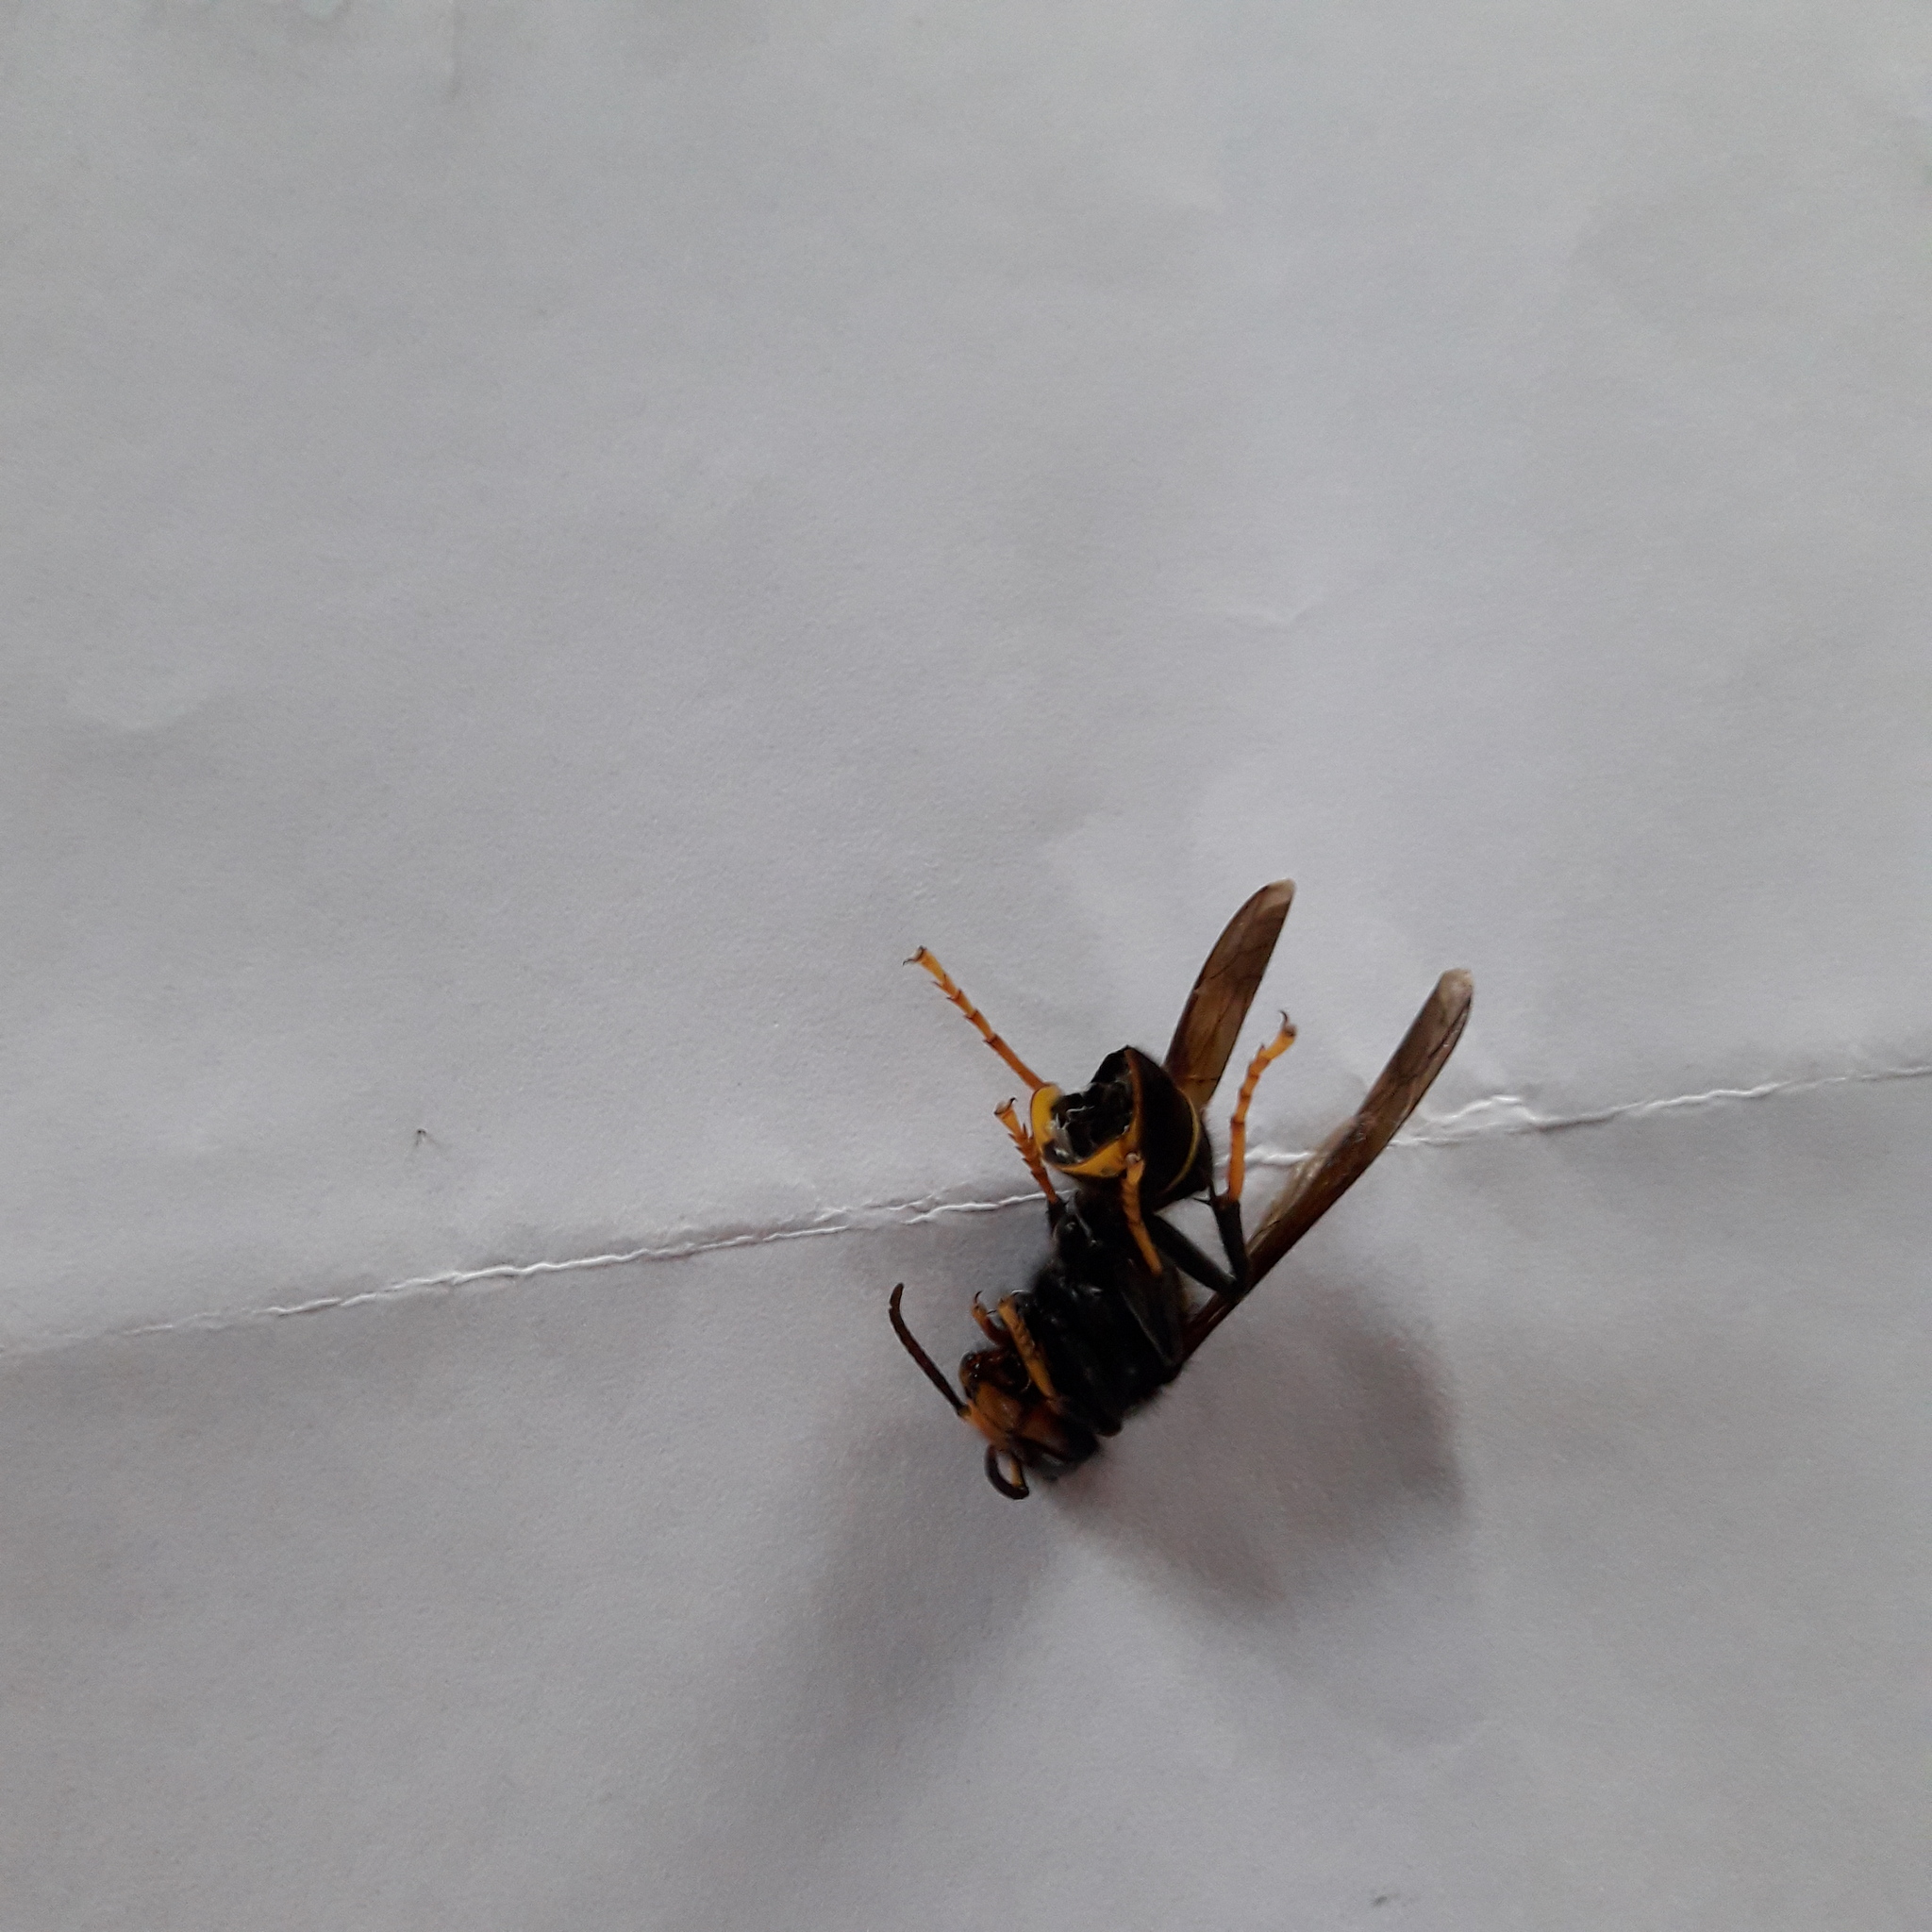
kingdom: Animalia
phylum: Arthropoda
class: Insecta
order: Hymenoptera
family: Vespidae
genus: Vespa
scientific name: Vespa velutina
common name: Asian hornet
